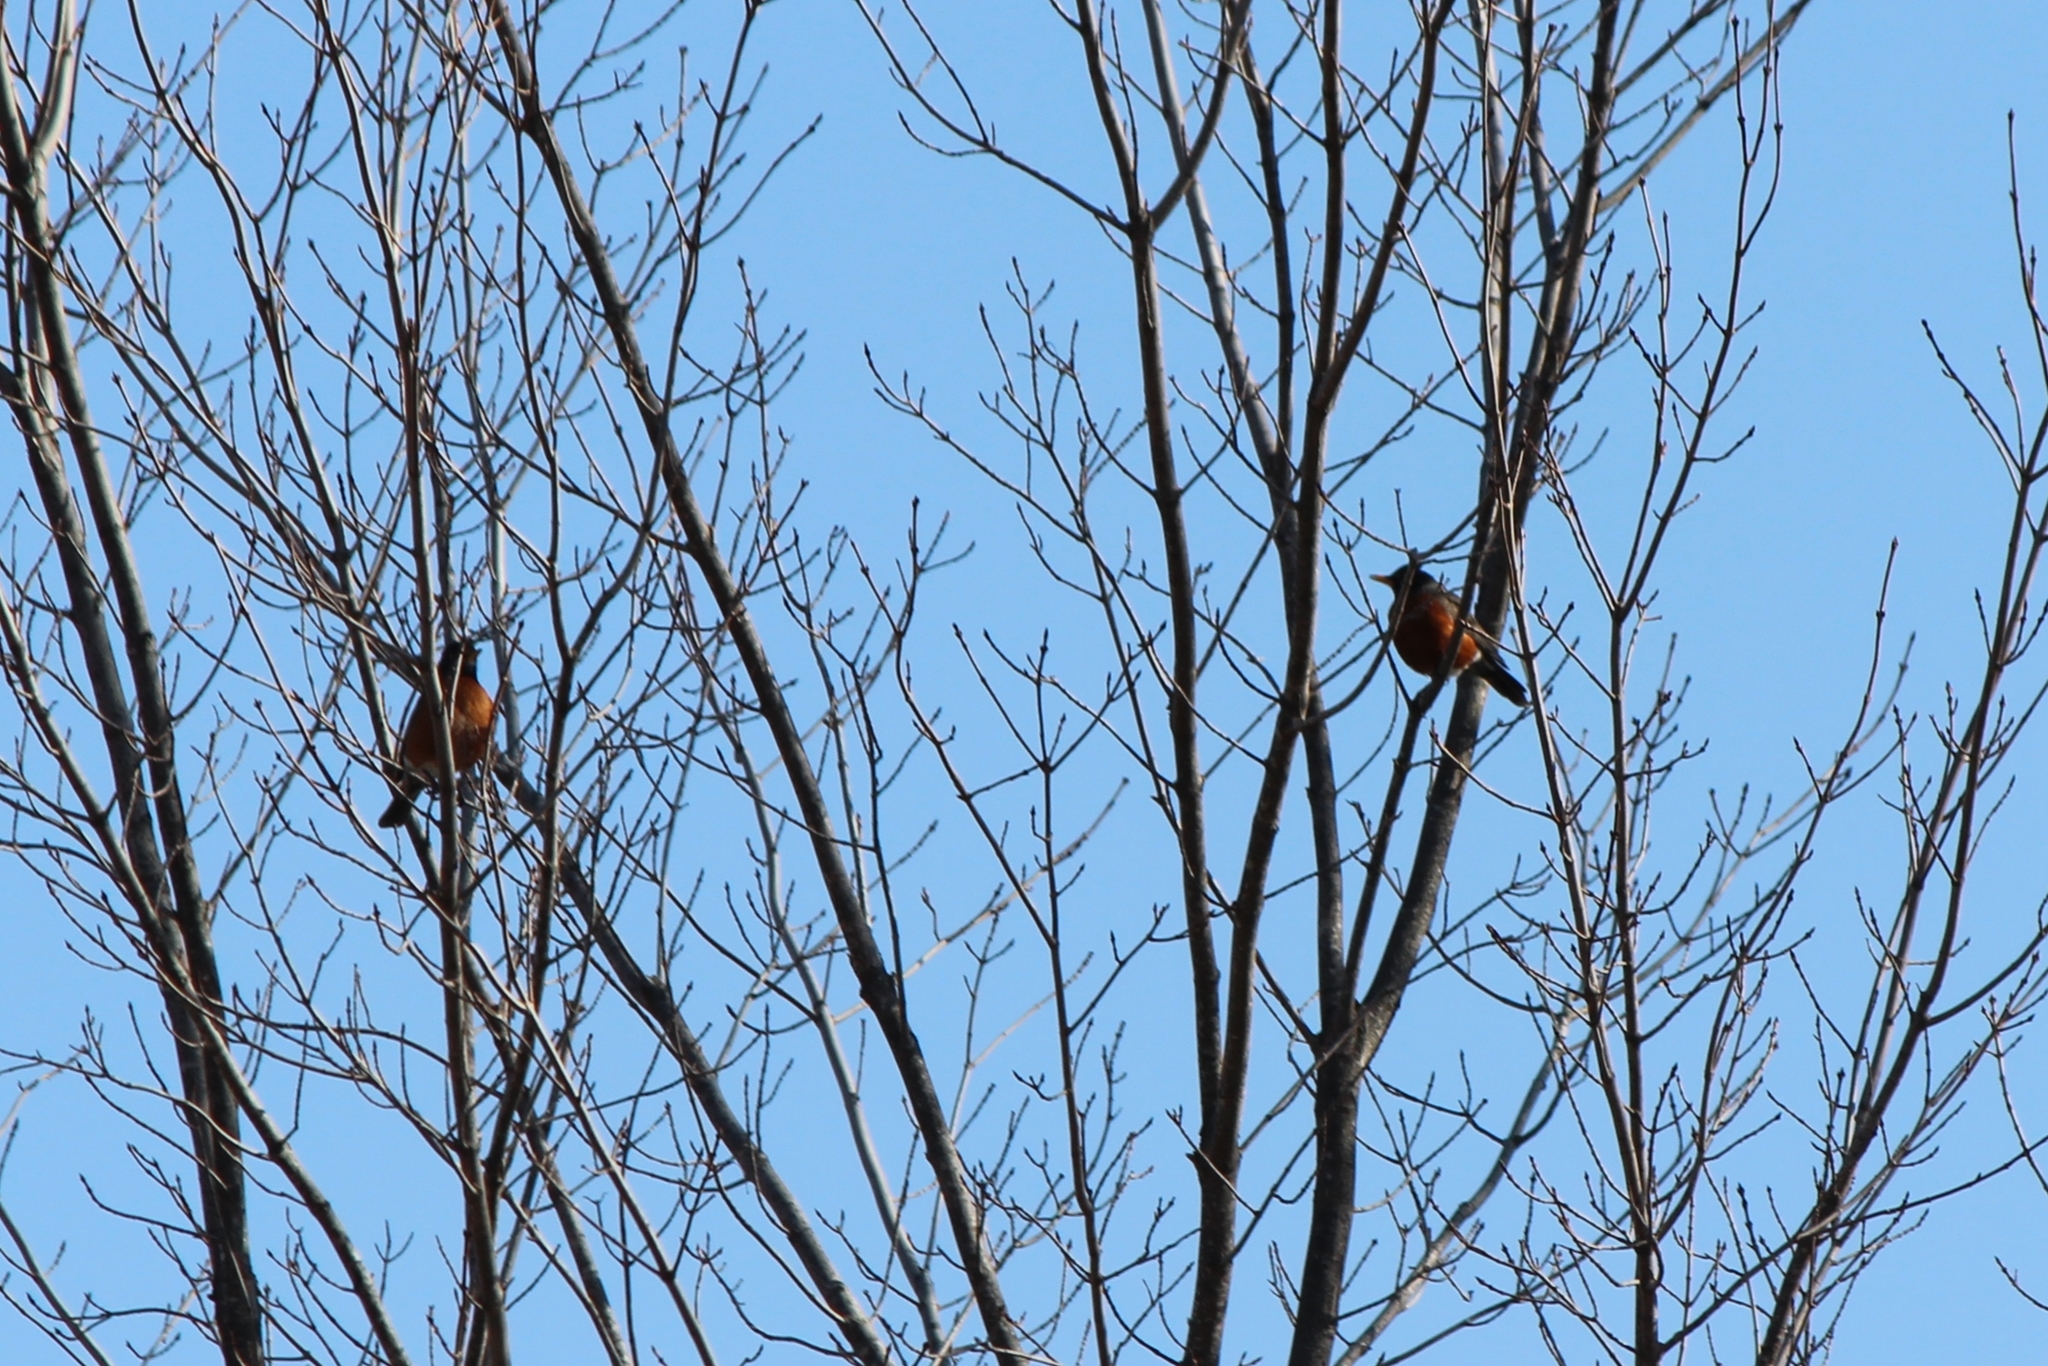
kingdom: Animalia
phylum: Chordata
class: Aves
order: Passeriformes
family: Turdidae
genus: Turdus
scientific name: Turdus migratorius
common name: American robin
